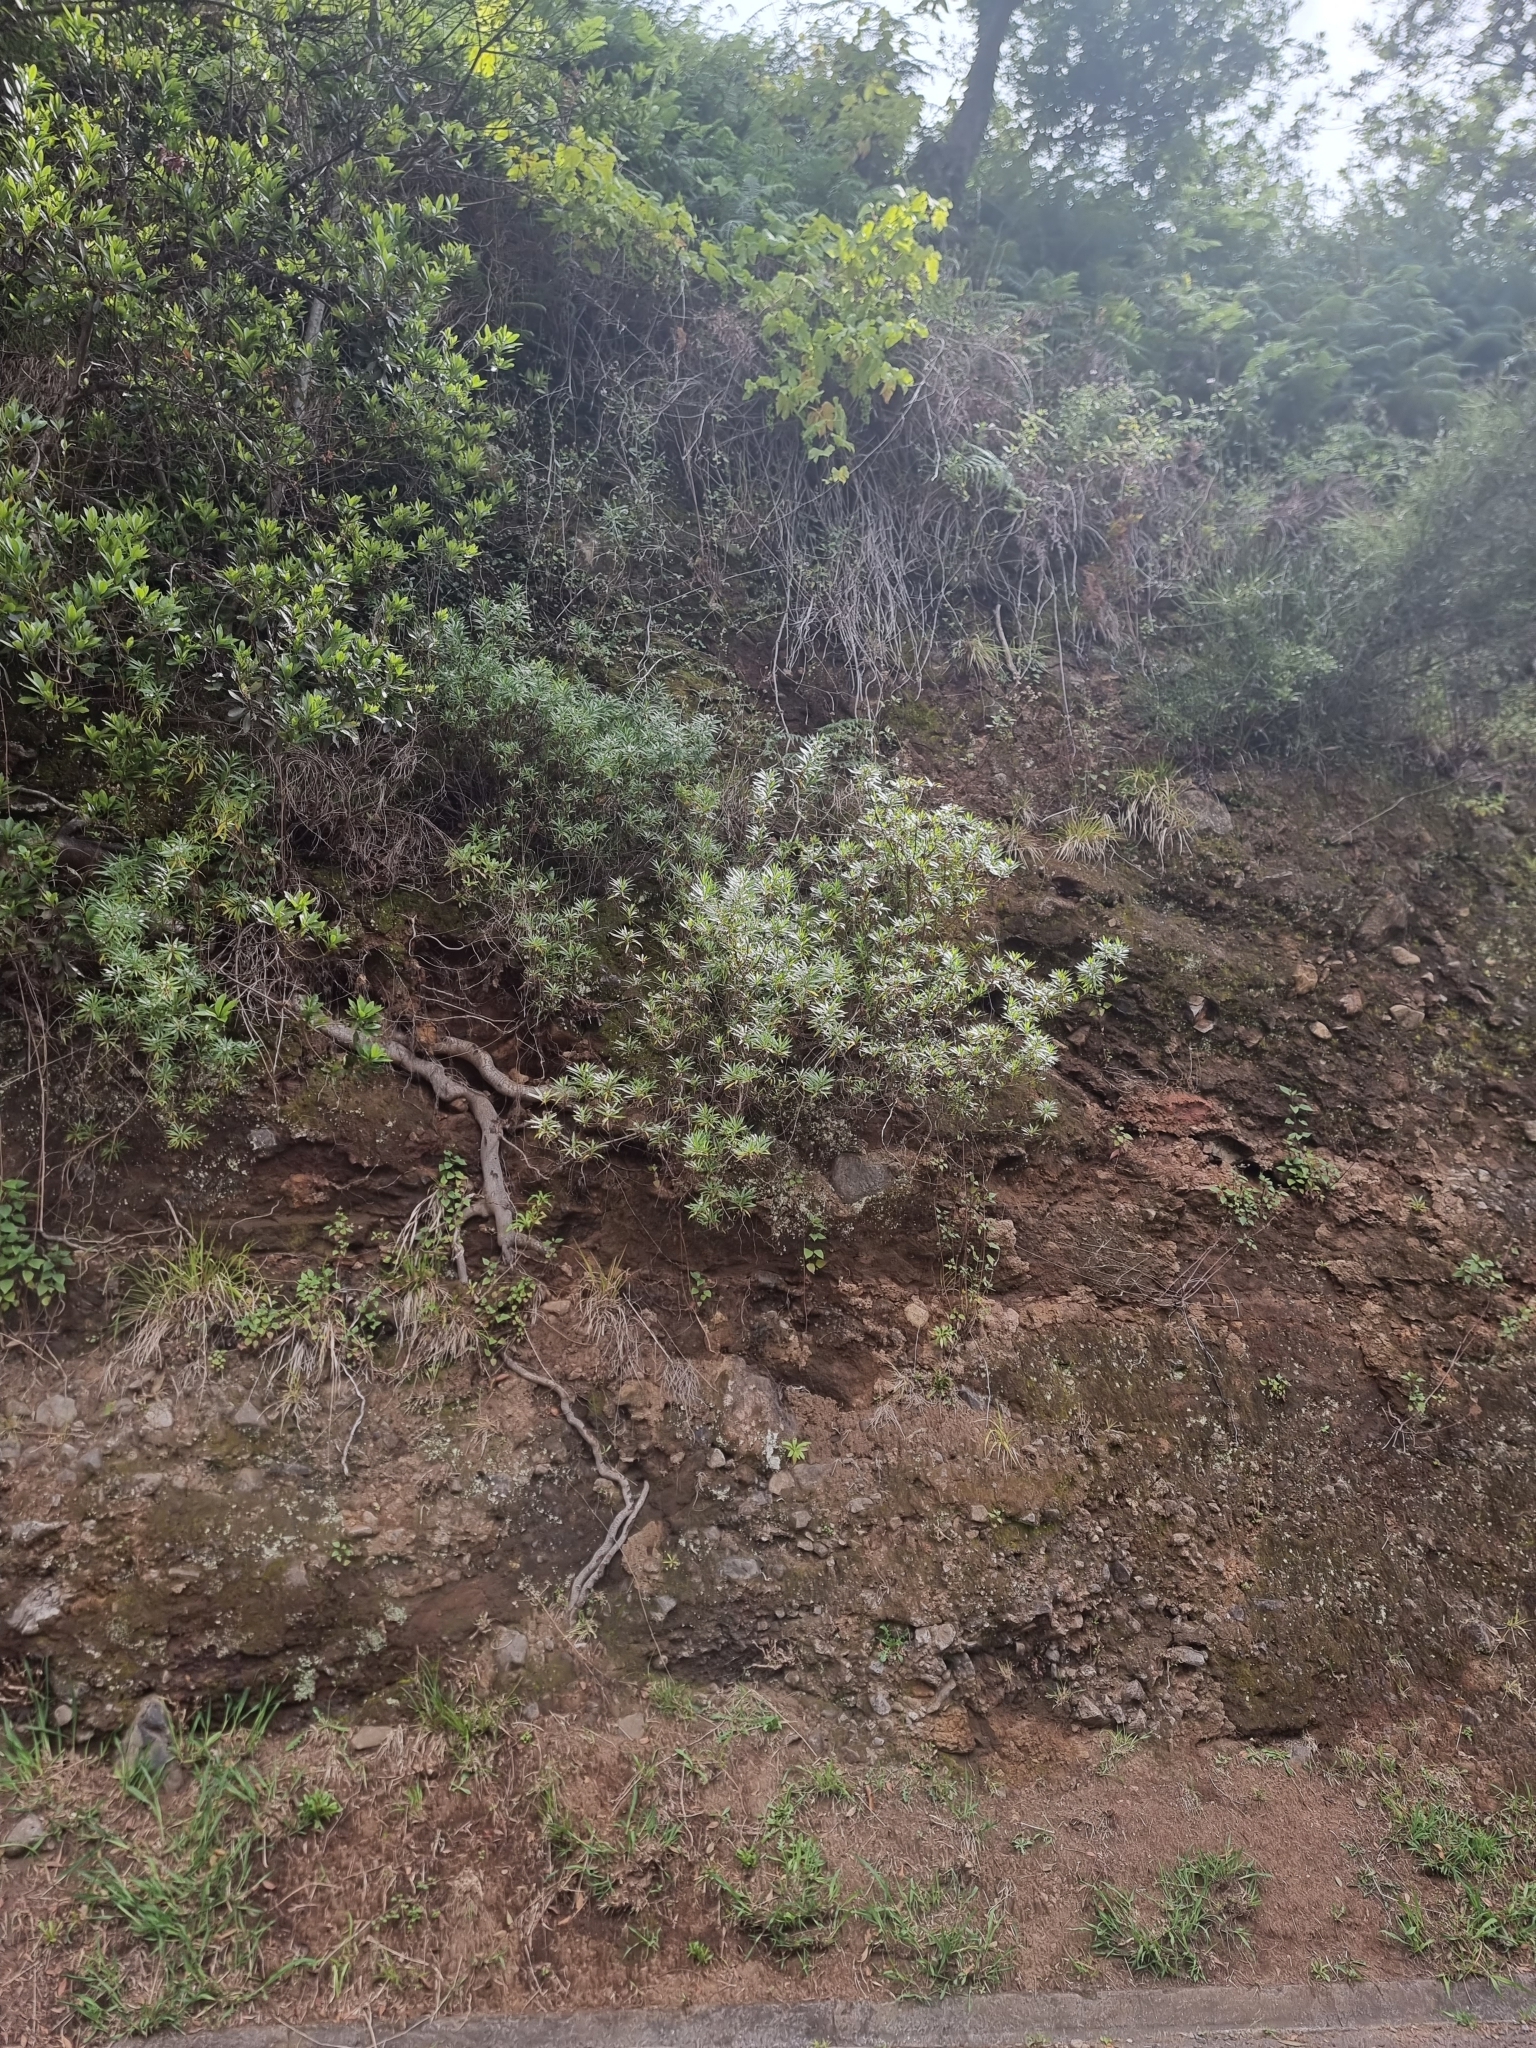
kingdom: Plantae
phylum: Tracheophyta
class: Magnoliopsida
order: Lamiales
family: Plantaginaceae
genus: Globularia
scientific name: Globularia salicina
